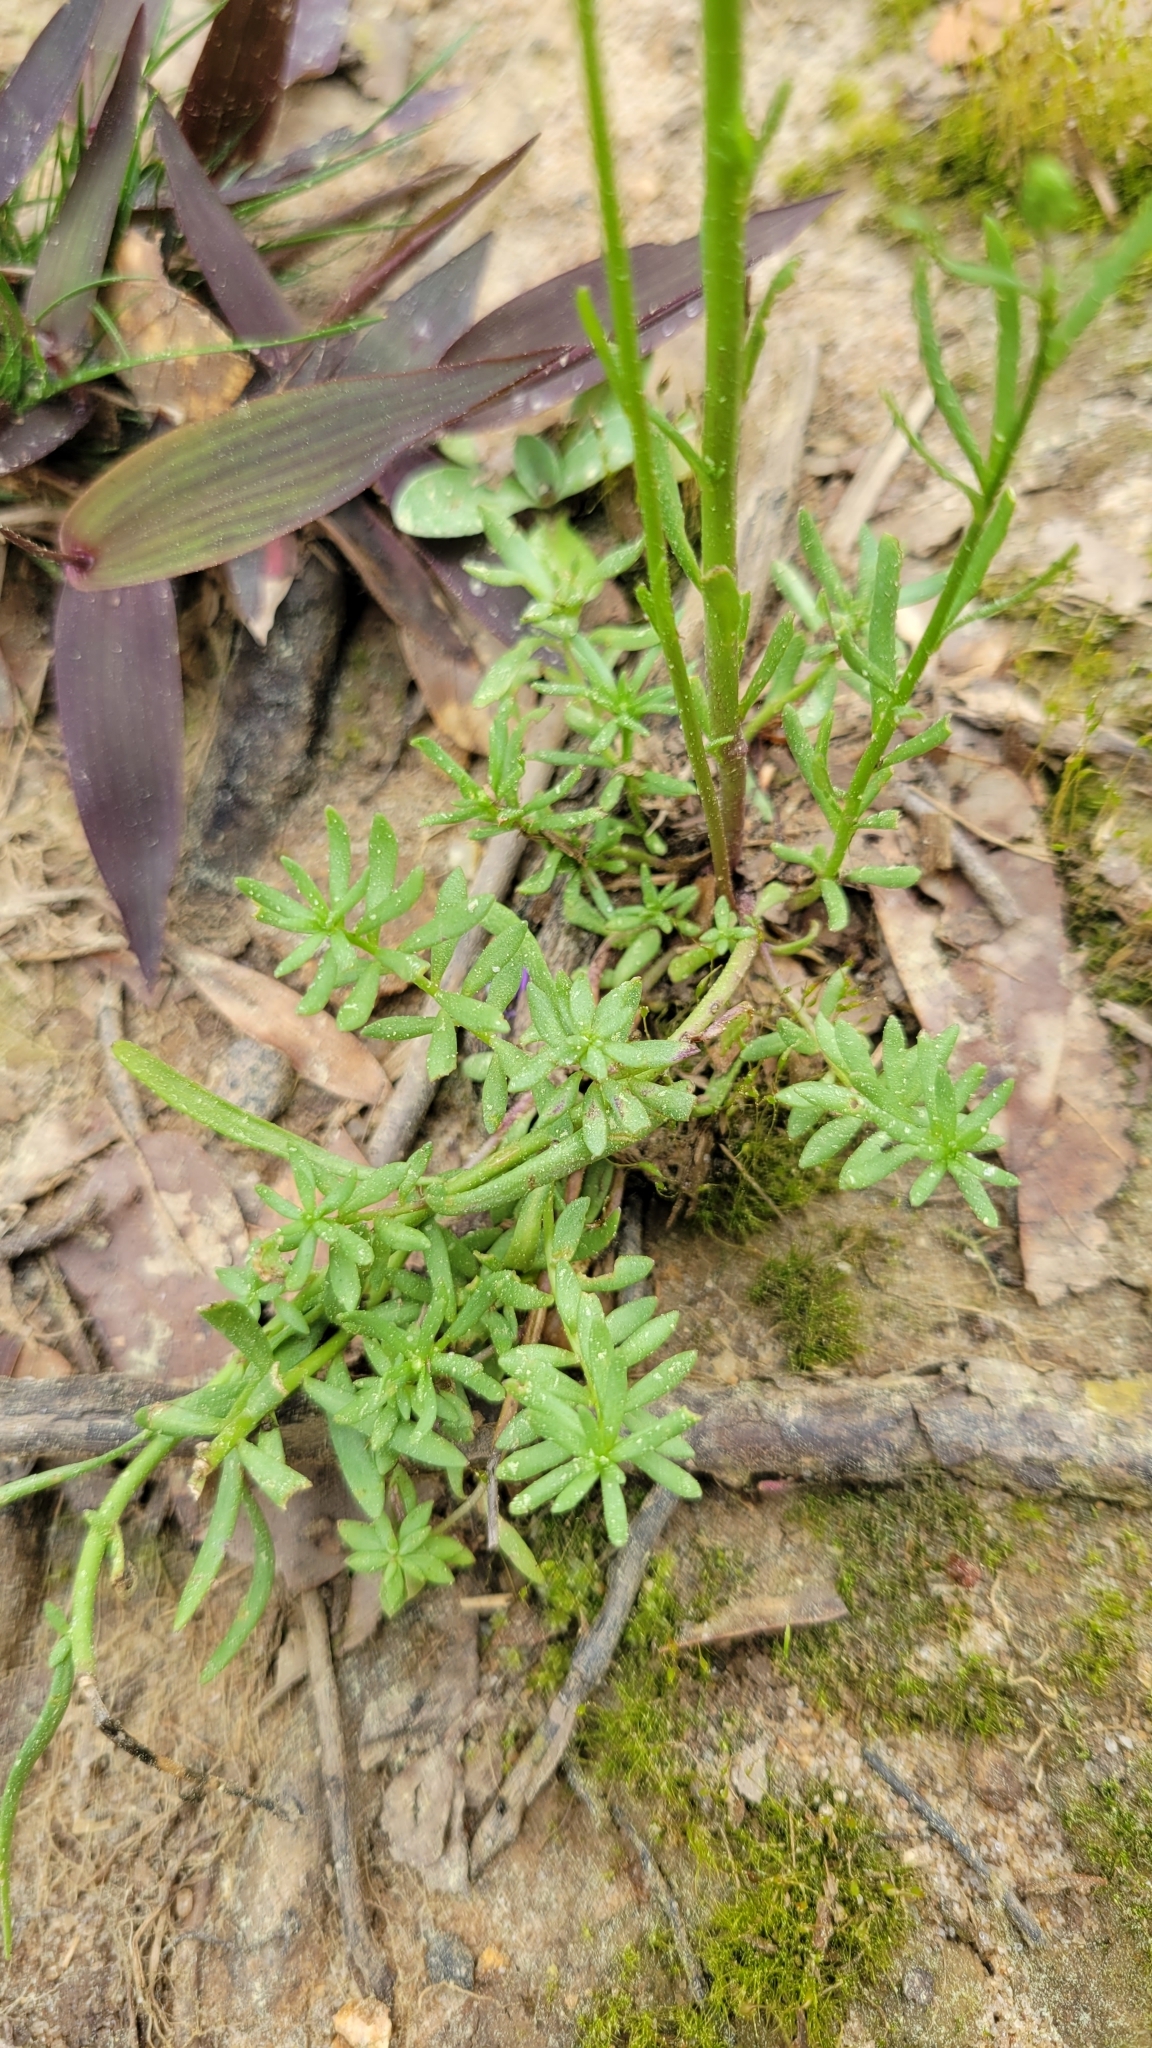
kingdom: Plantae
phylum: Tracheophyta
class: Magnoliopsida
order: Lamiales
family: Plantaginaceae
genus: Nuttallanthus
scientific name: Nuttallanthus canadensis
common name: Blue toadflax
